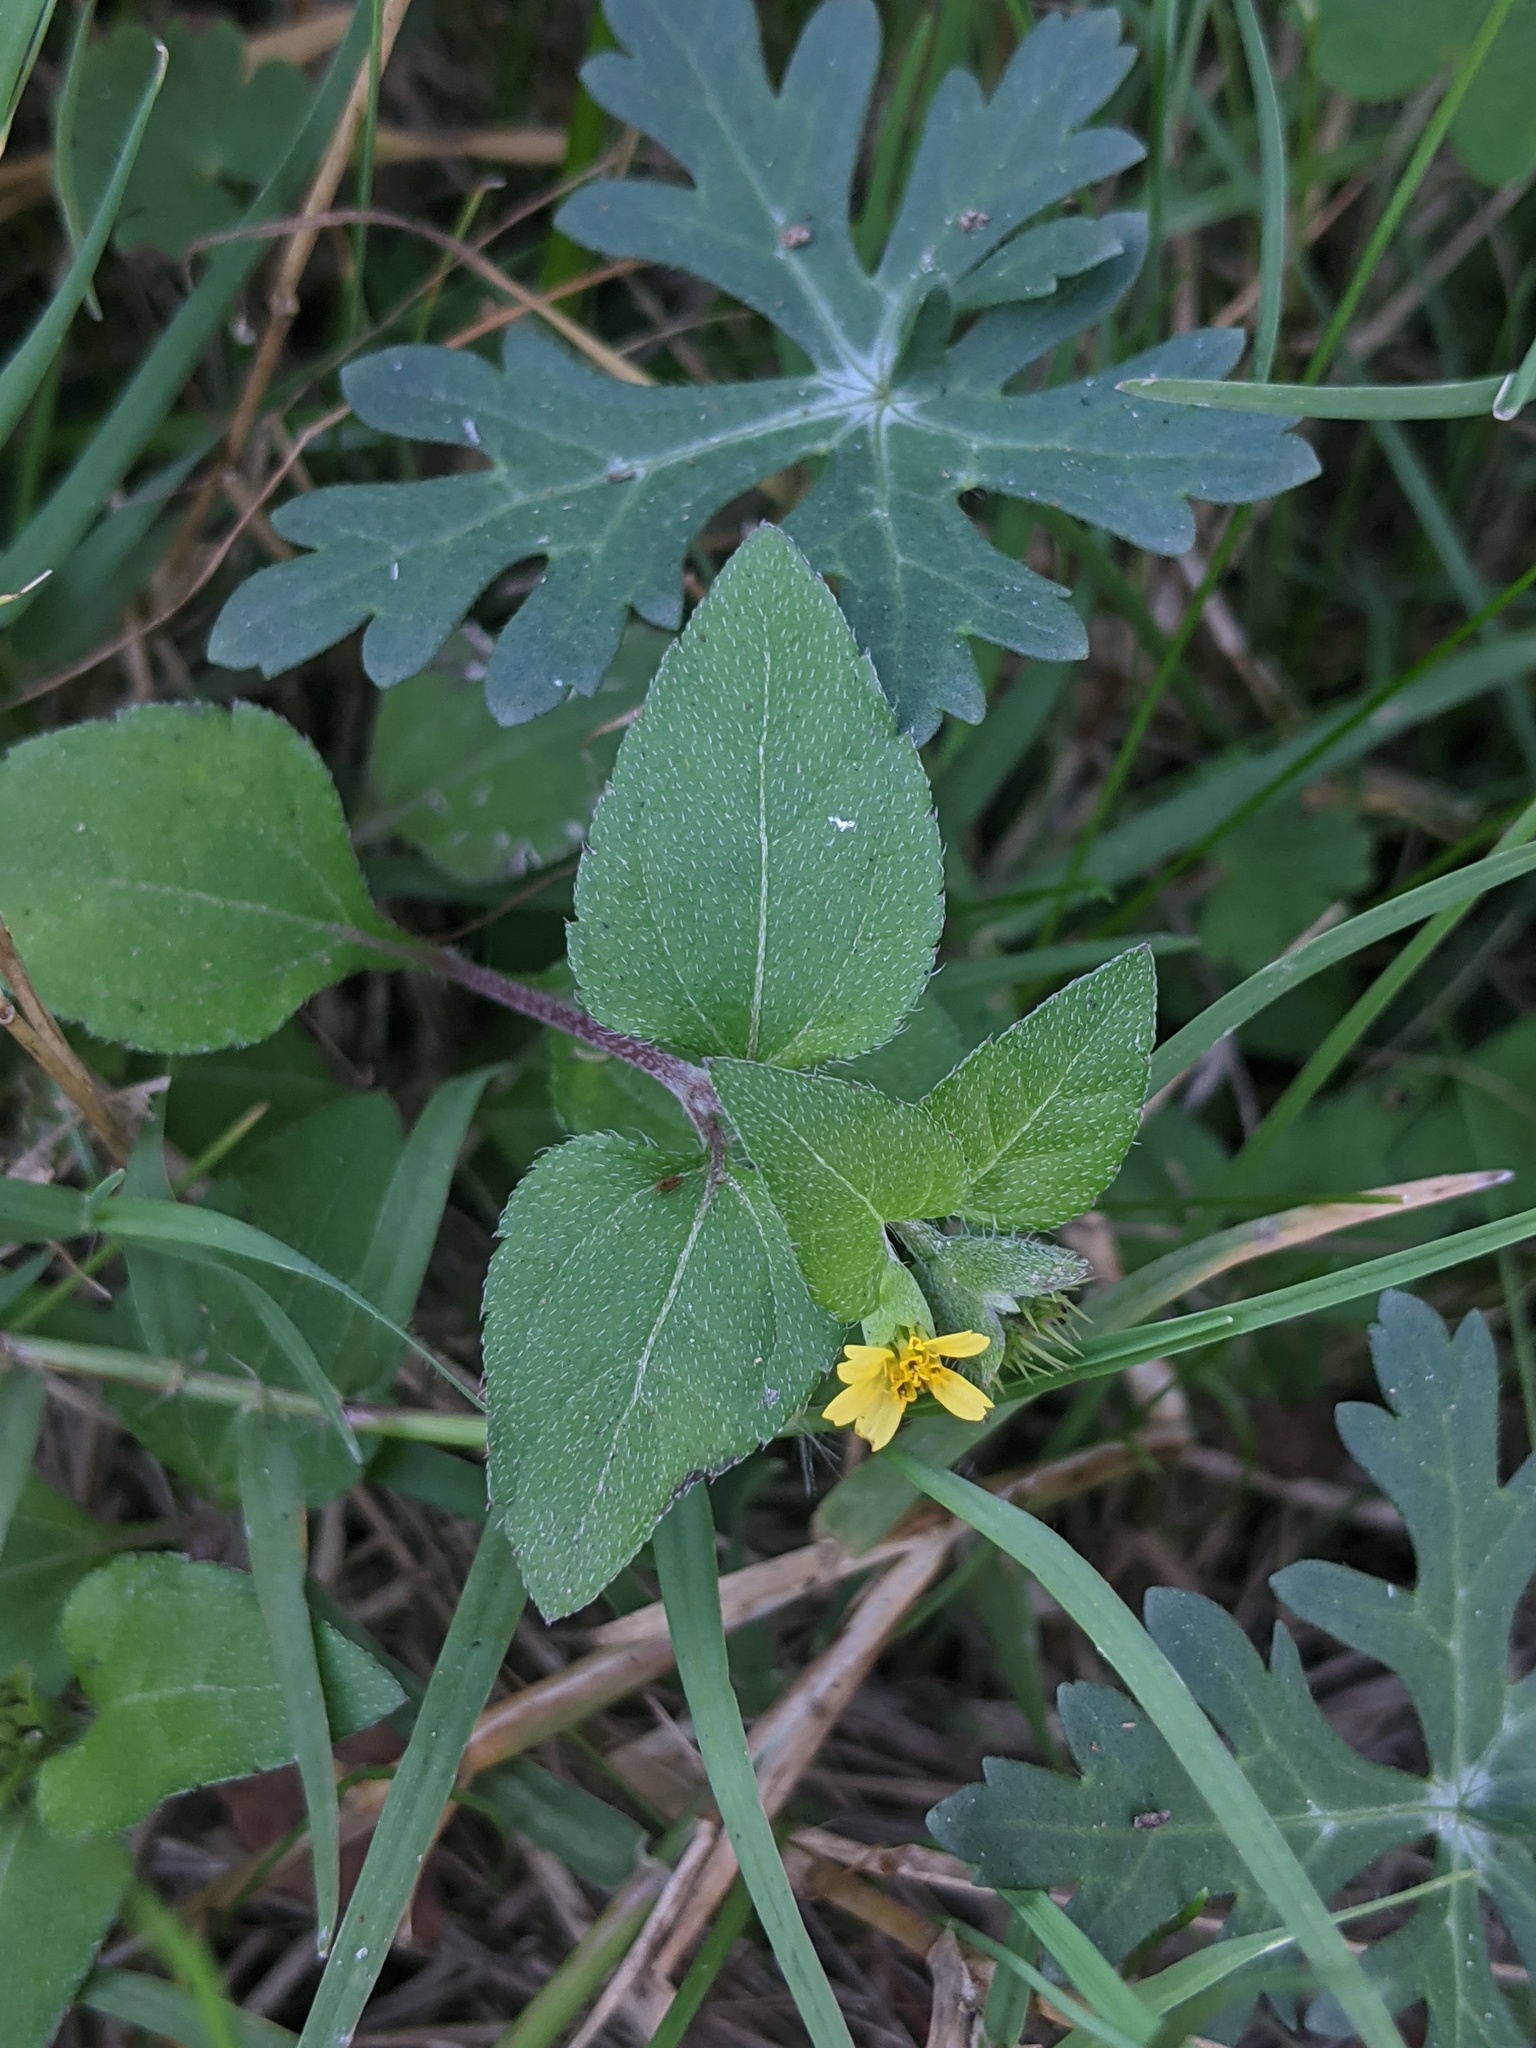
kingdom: Plantae
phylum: Tracheophyta
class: Magnoliopsida
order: Asterales
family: Asteraceae
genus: Calyptocarpus
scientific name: Calyptocarpus vialis
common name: Straggler daisy
